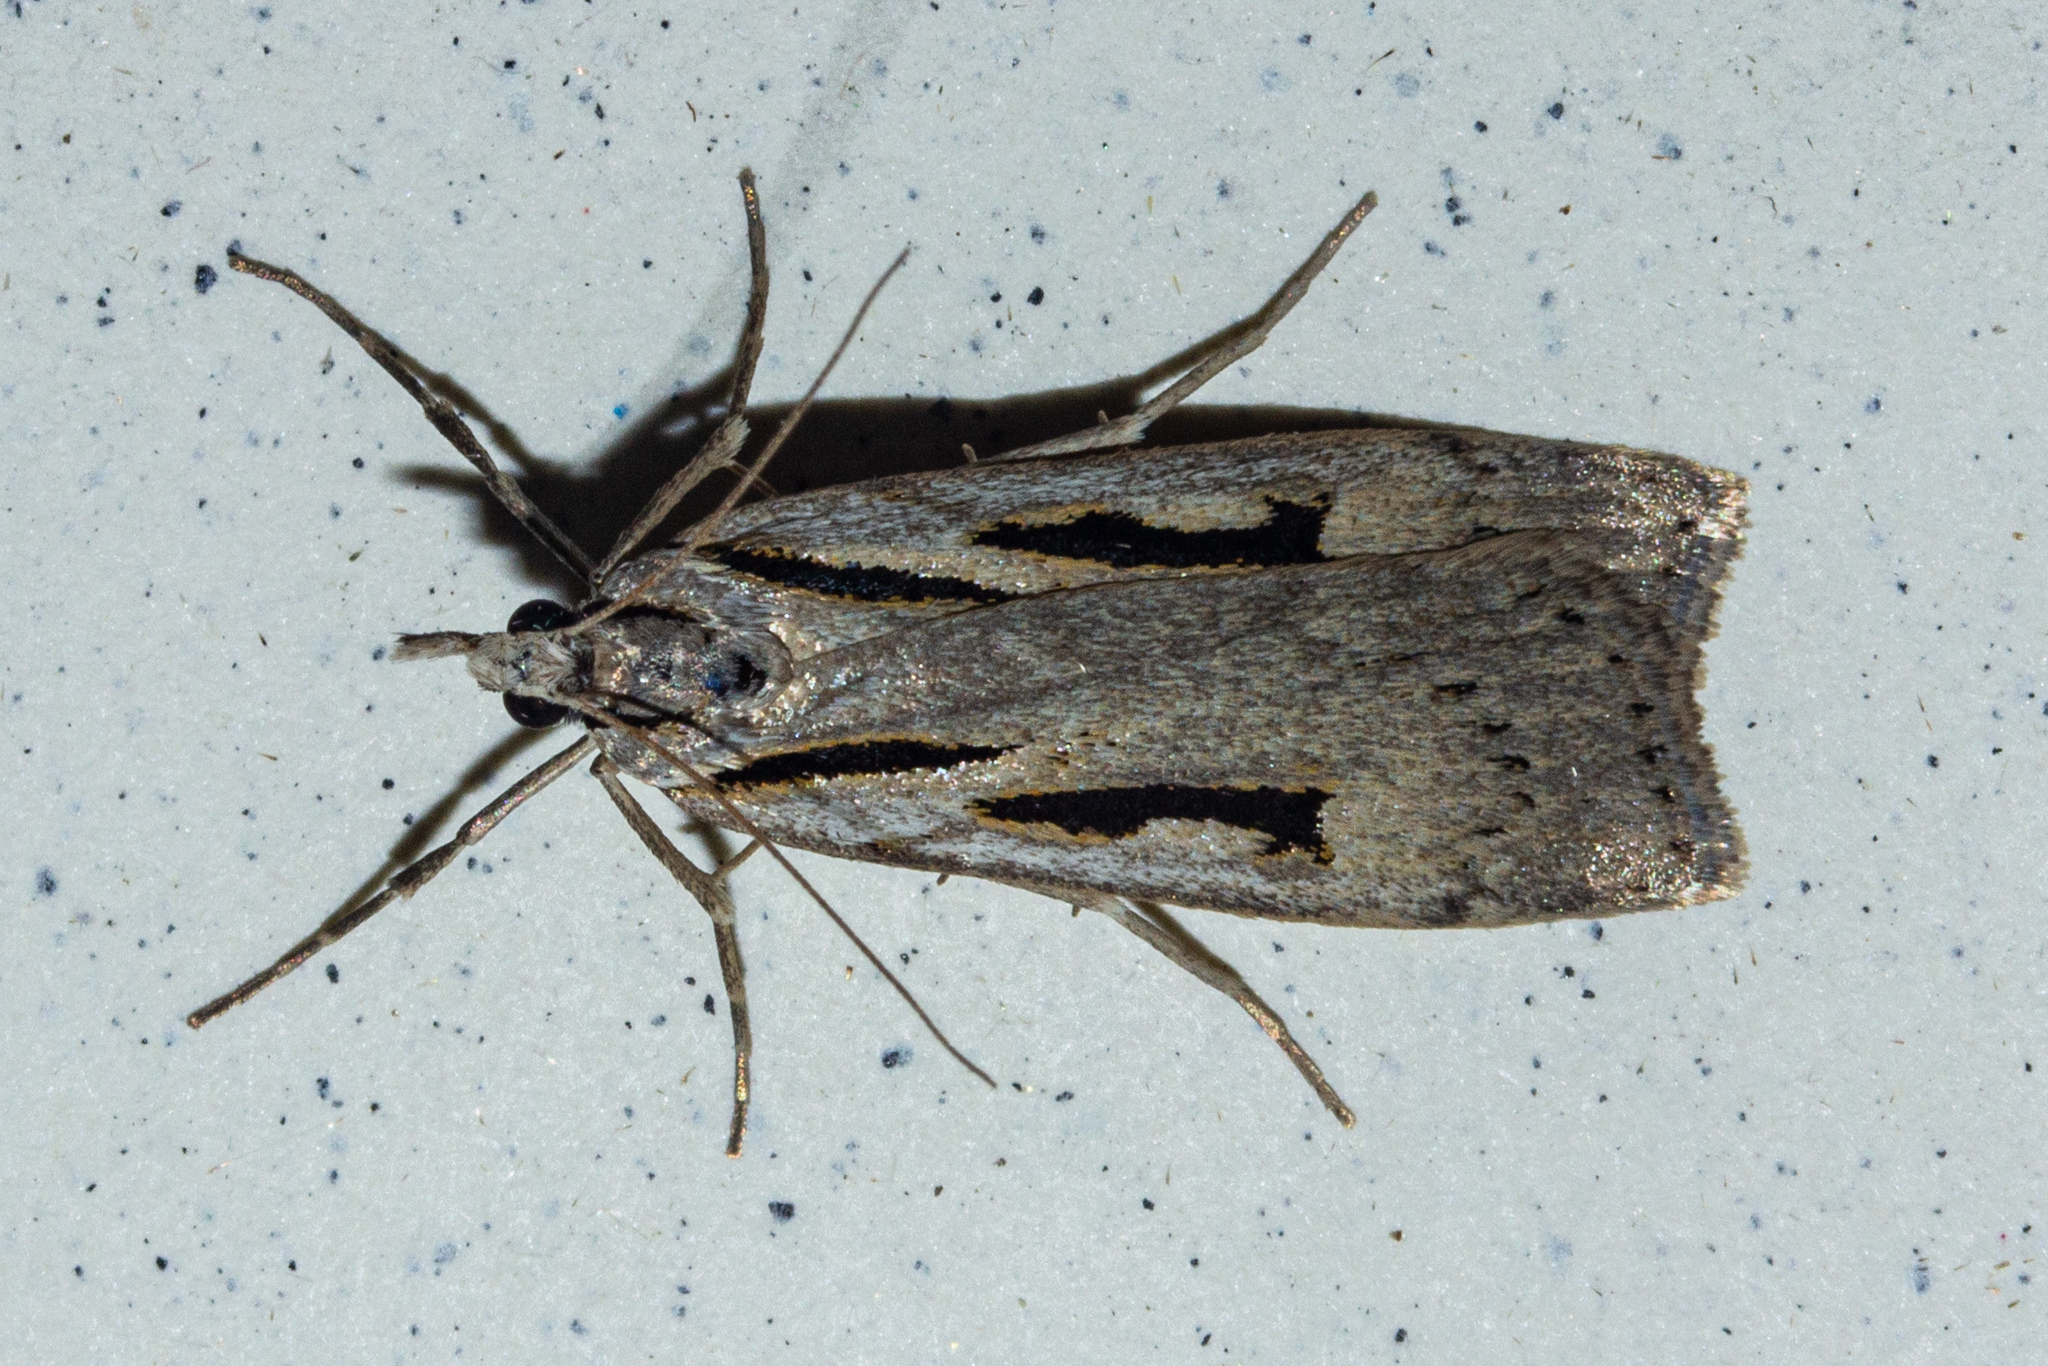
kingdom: Animalia
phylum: Arthropoda
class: Insecta
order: Lepidoptera
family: Crambidae
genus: Scoparia
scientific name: Scoparia rotuellus
